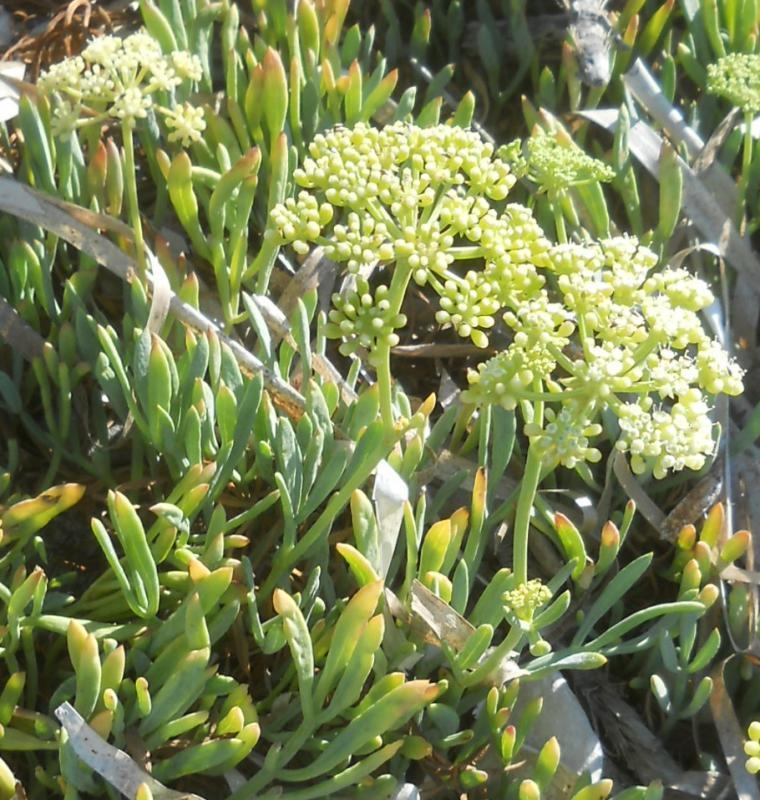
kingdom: Plantae
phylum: Tracheophyta
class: Magnoliopsida
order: Apiales
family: Apiaceae
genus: Crithmum
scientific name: Crithmum maritimum
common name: Rock samphire
